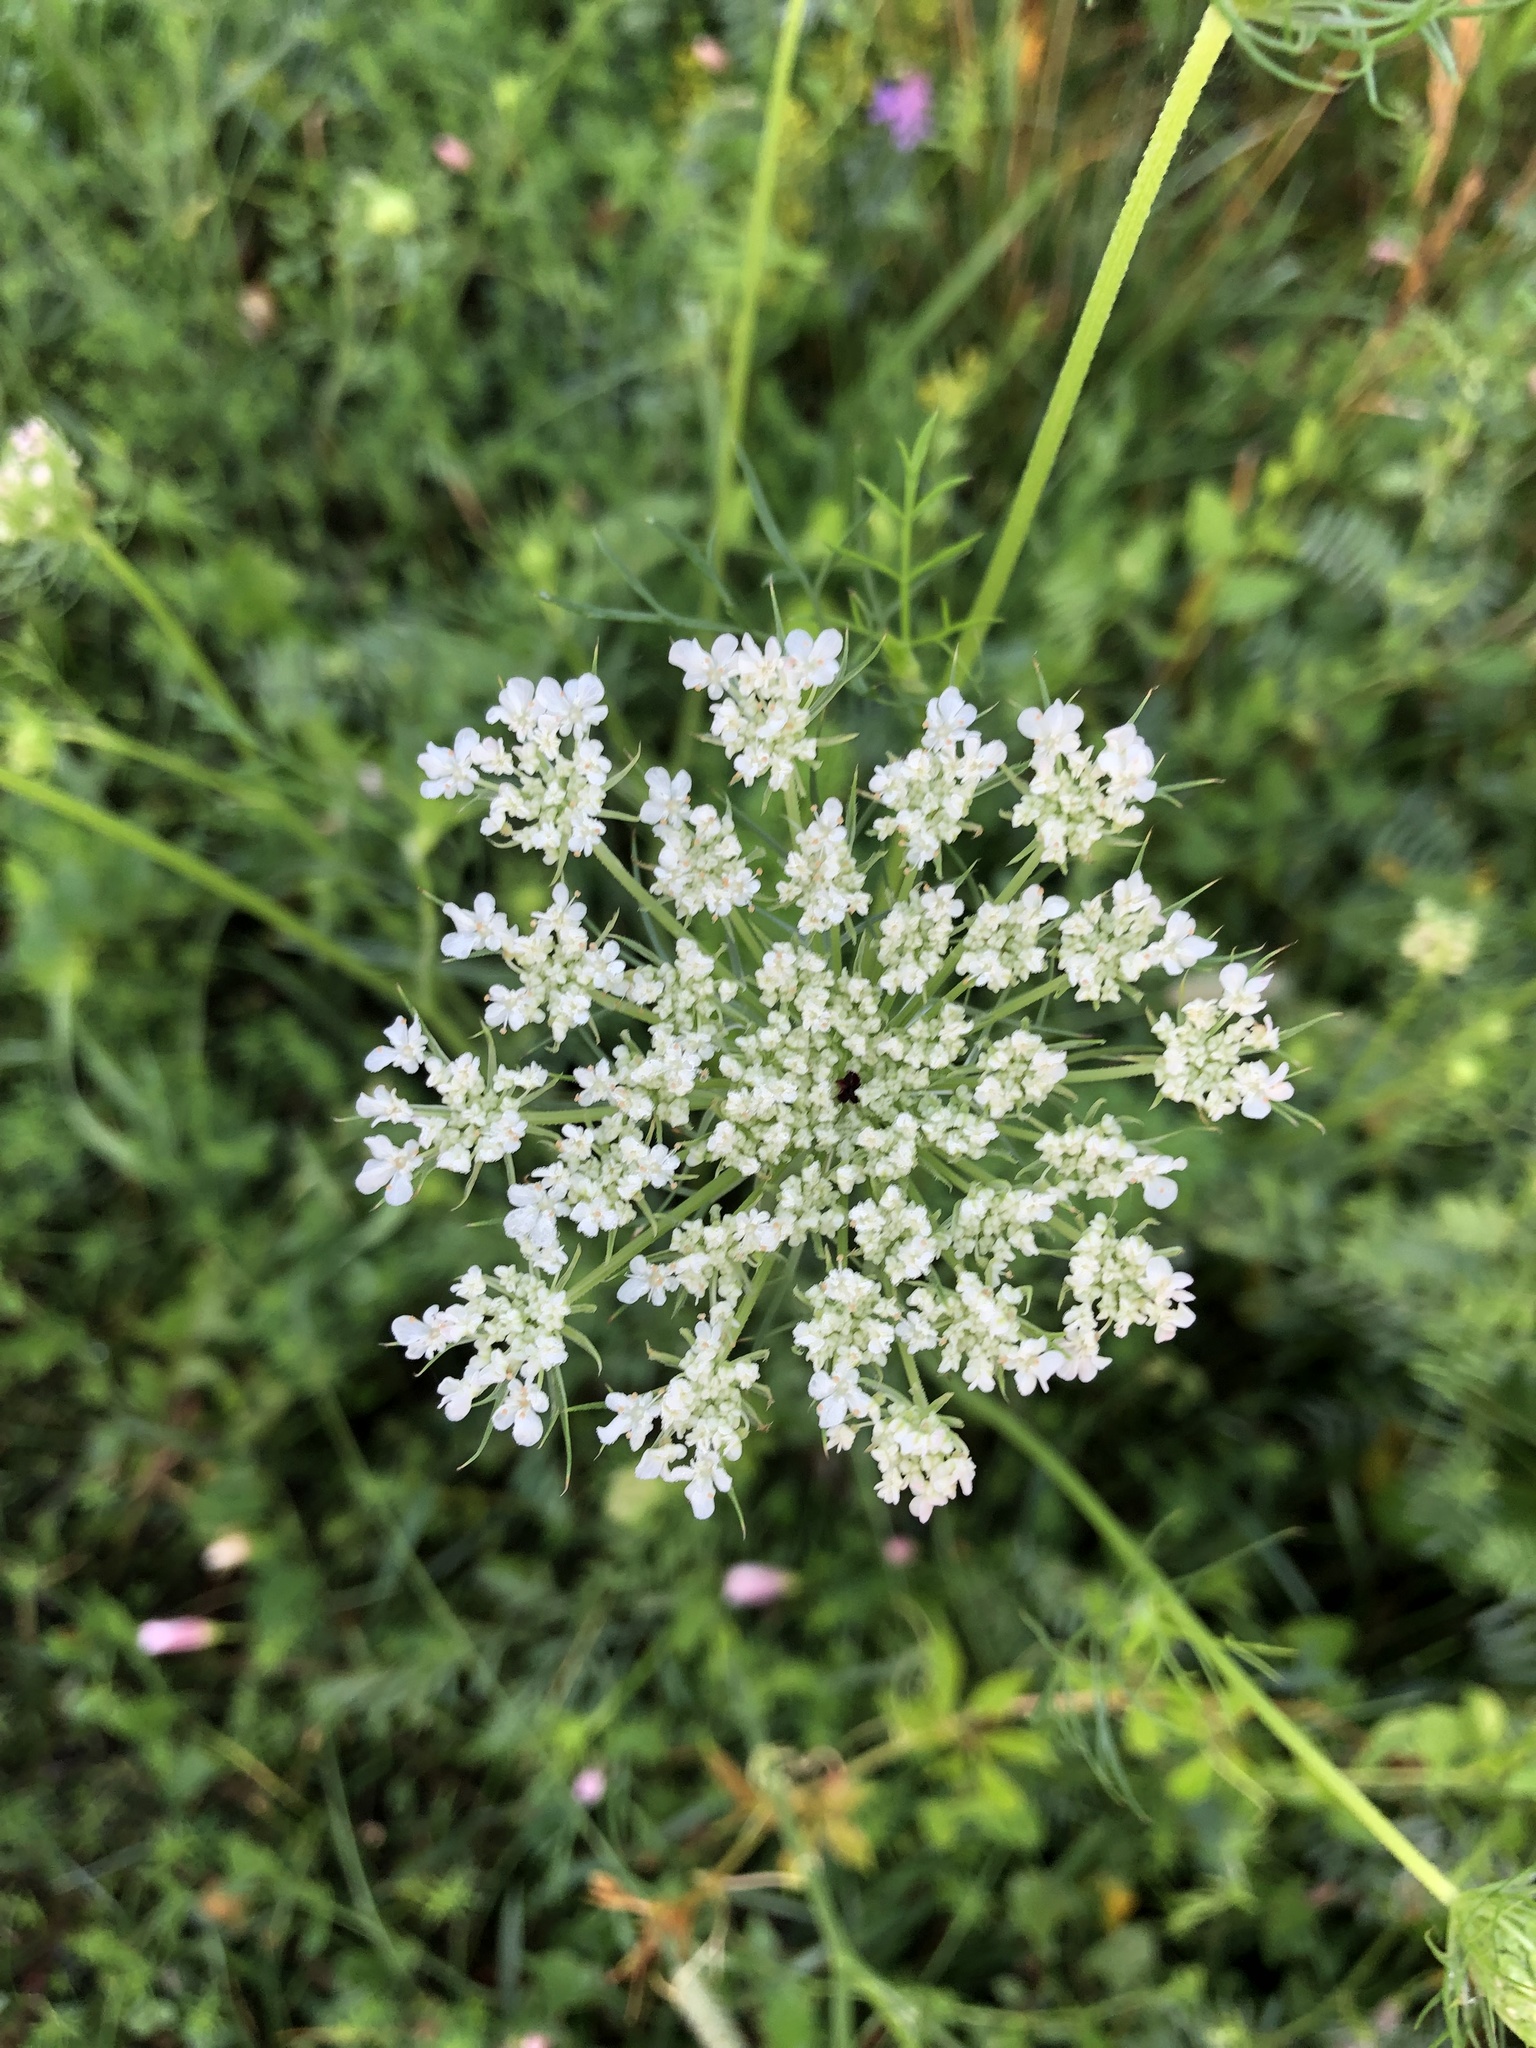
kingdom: Plantae
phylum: Tracheophyta
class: Magnoliopsida
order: Apiales
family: Apiaceae
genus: Daucus
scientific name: Daucus carota
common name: Wild carrot
